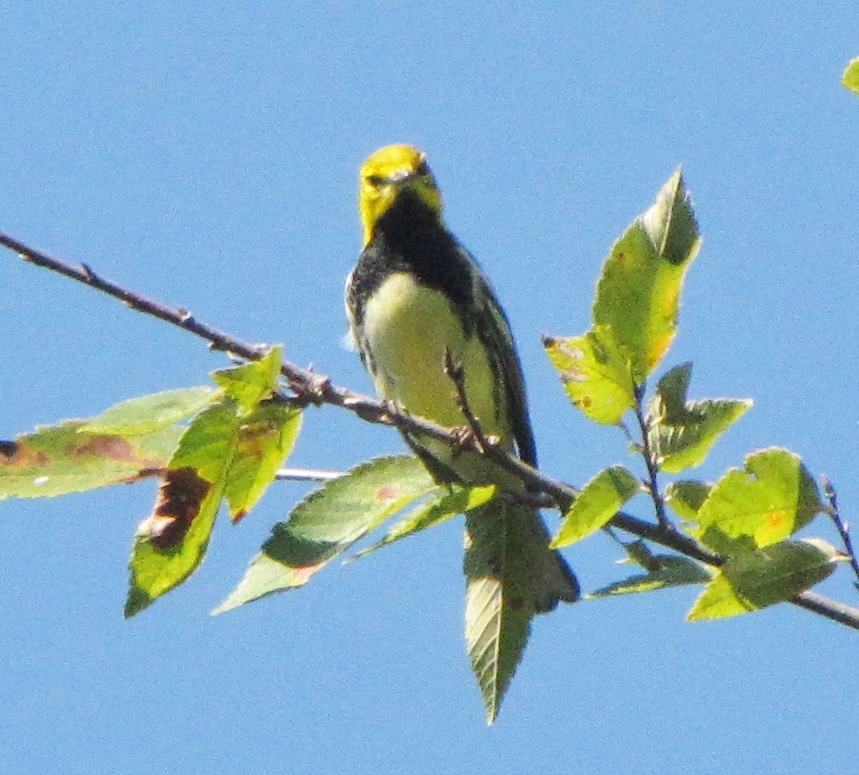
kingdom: Animalia
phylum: Chordata
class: Aves
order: Passeriformes
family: Parulidae
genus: Setophaga
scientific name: Setophaga virens
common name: Black-throated green warbler
